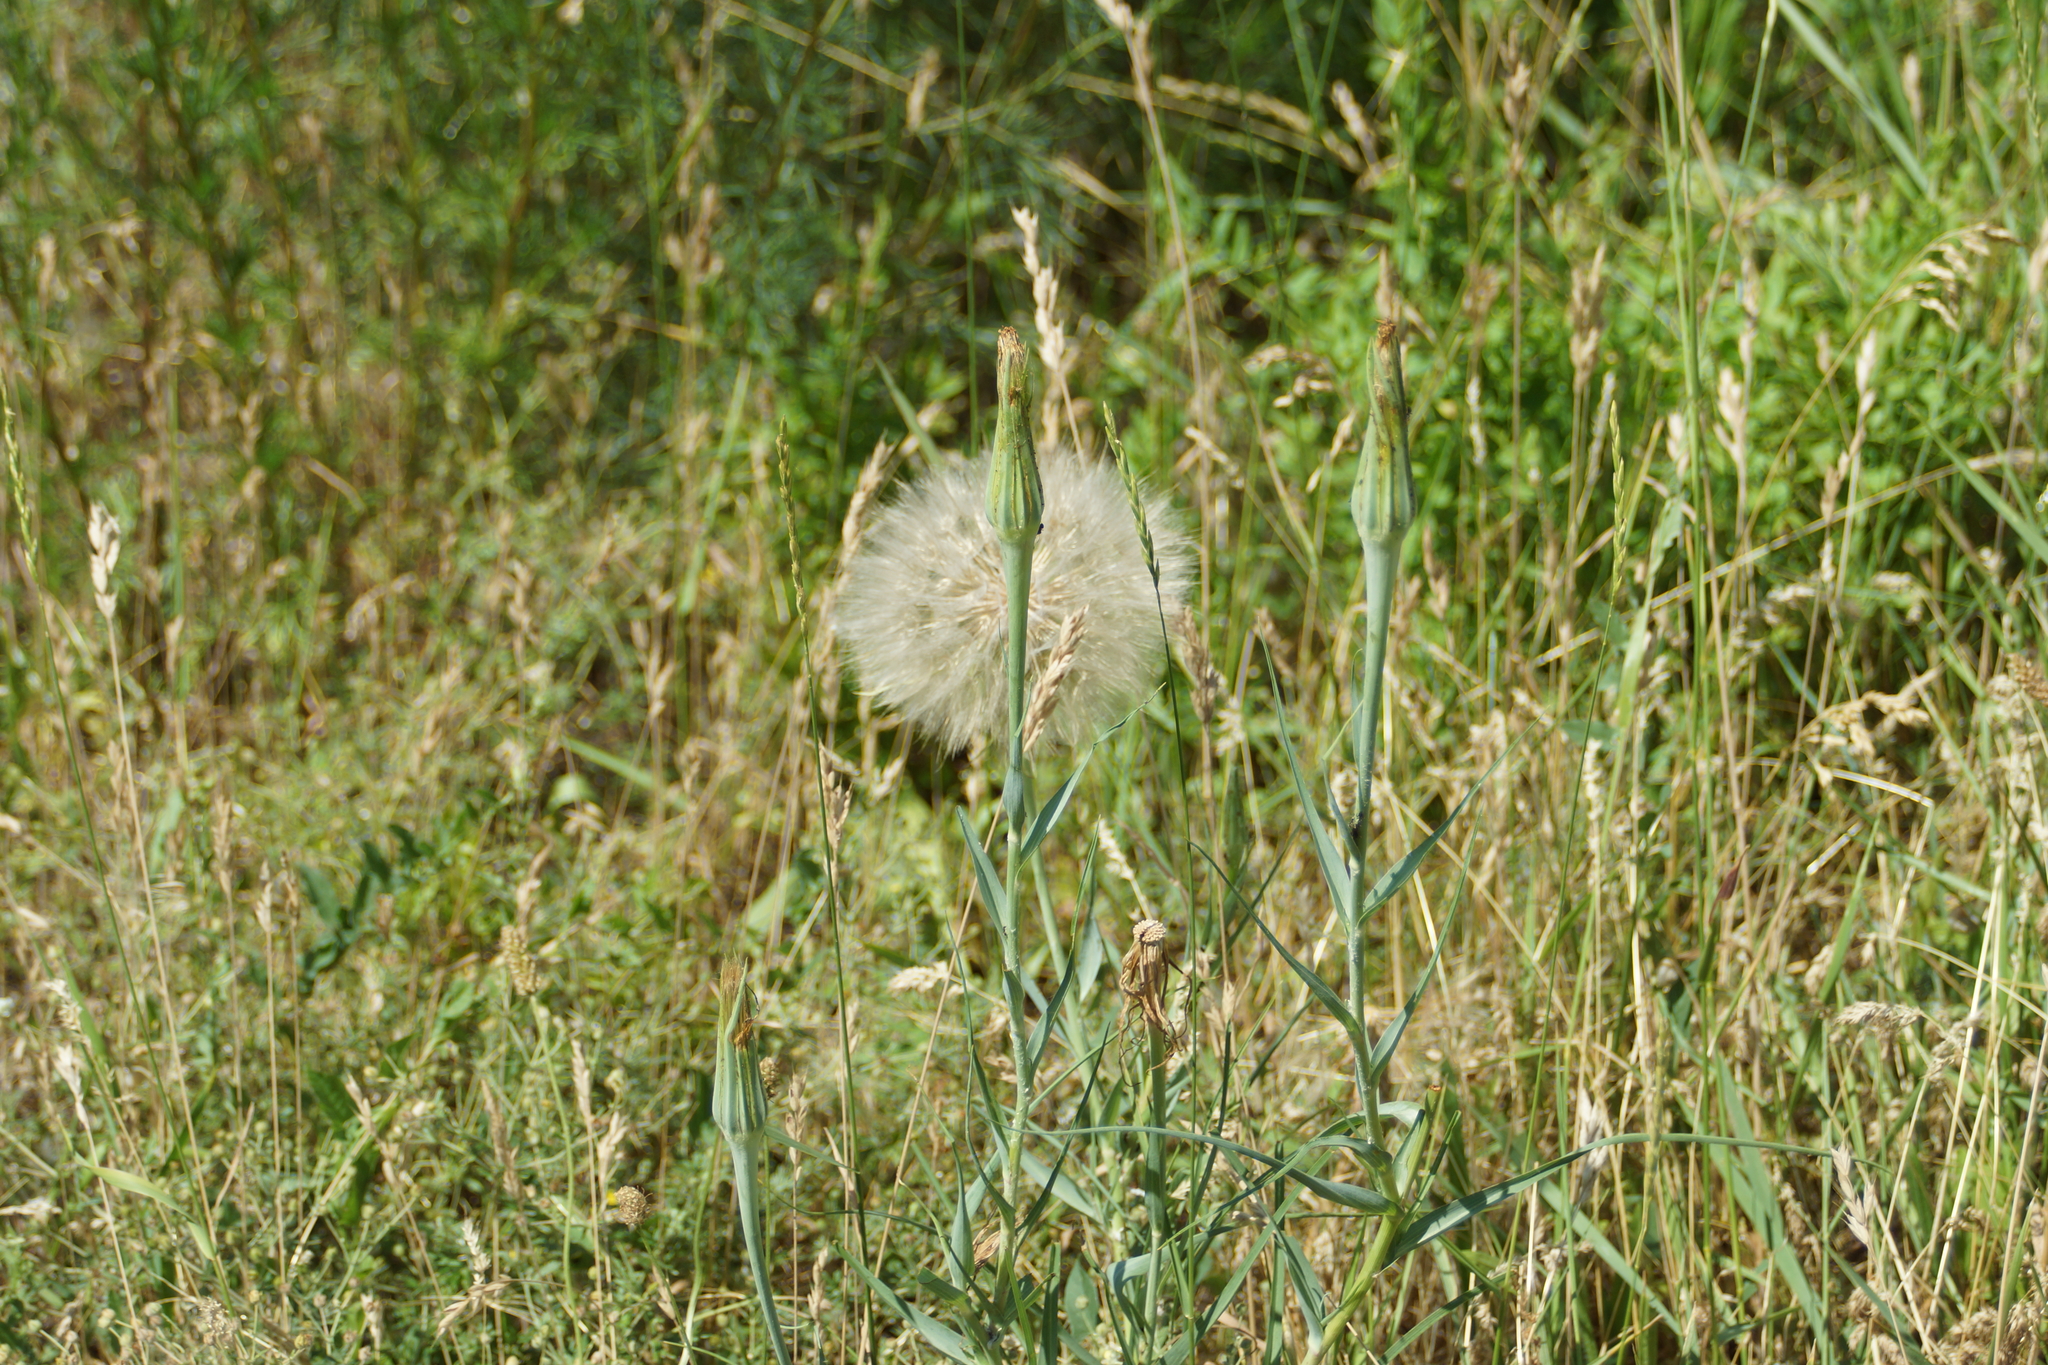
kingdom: Plantae
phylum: Tracheophyta
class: Magnoliopsida
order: Asterales
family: Asteraceae
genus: Tragopogon
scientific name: Tragopogon dubius
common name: Yellow salsify
